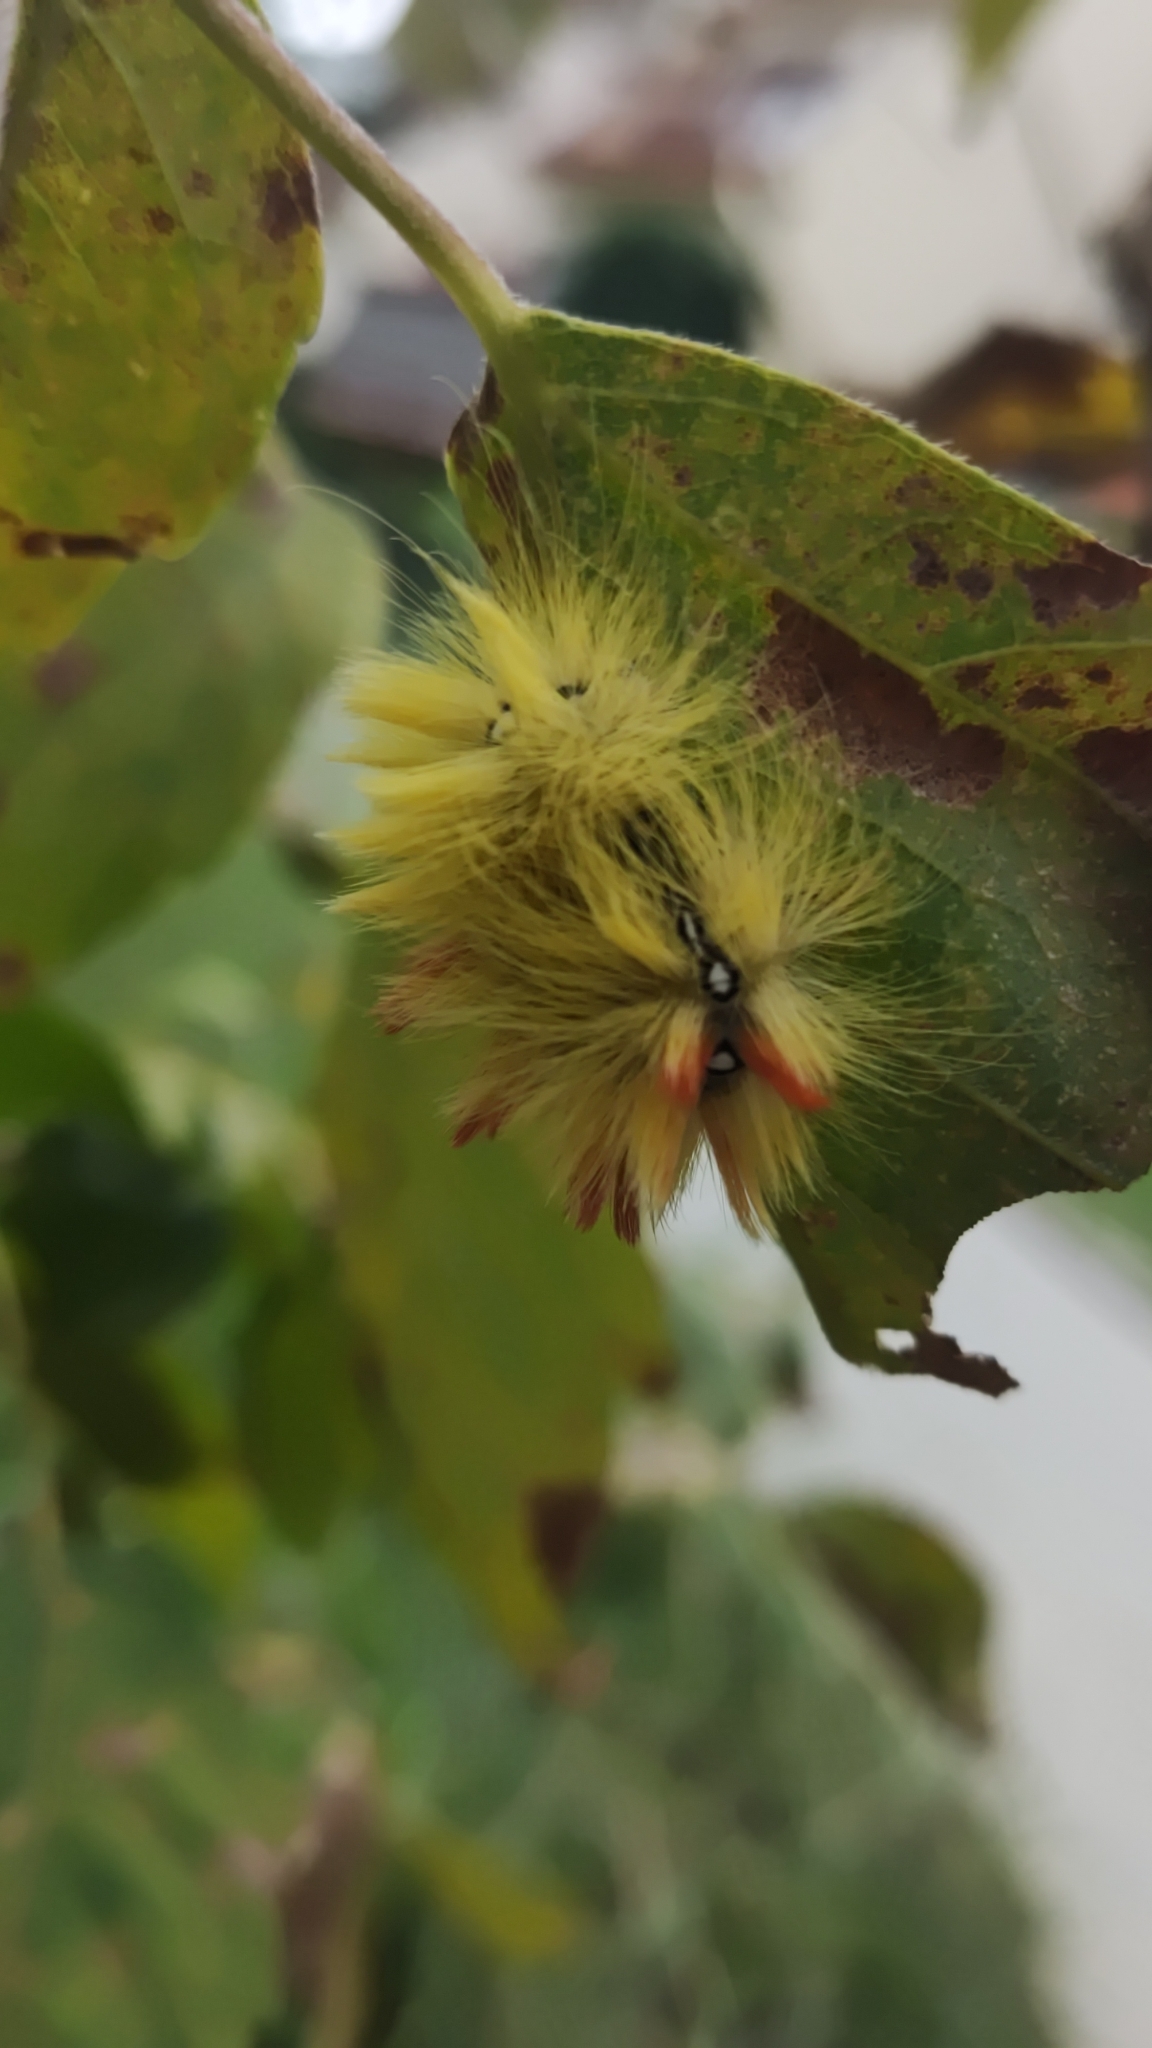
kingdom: Animalia
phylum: Arthropoda
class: Insecta
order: Lepidoptera
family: Noctuidae
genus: Acronicta
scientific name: Acronicta aceris
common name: Sycamore
